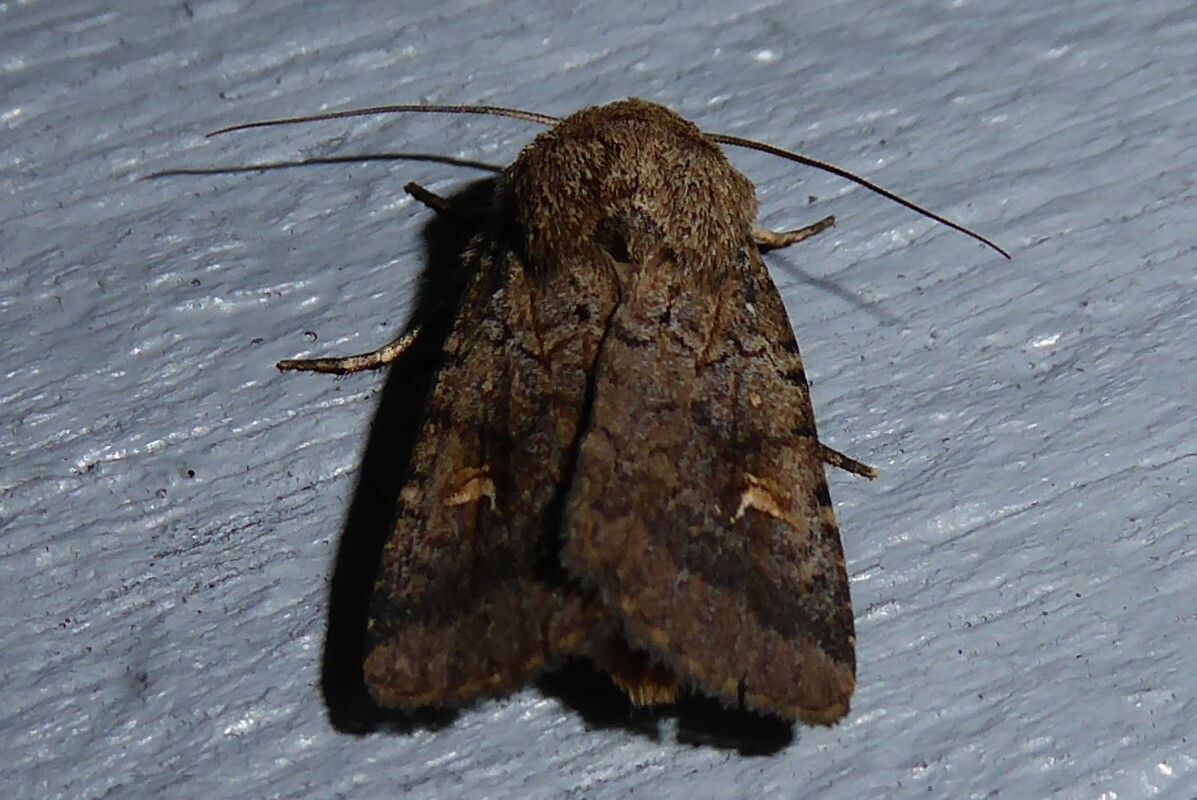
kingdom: Animalia
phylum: Arthropoda
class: Insecta
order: Lepidoptera
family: Noctuidae
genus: Proteuxoa
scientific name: Proteuxoa tetronycha
